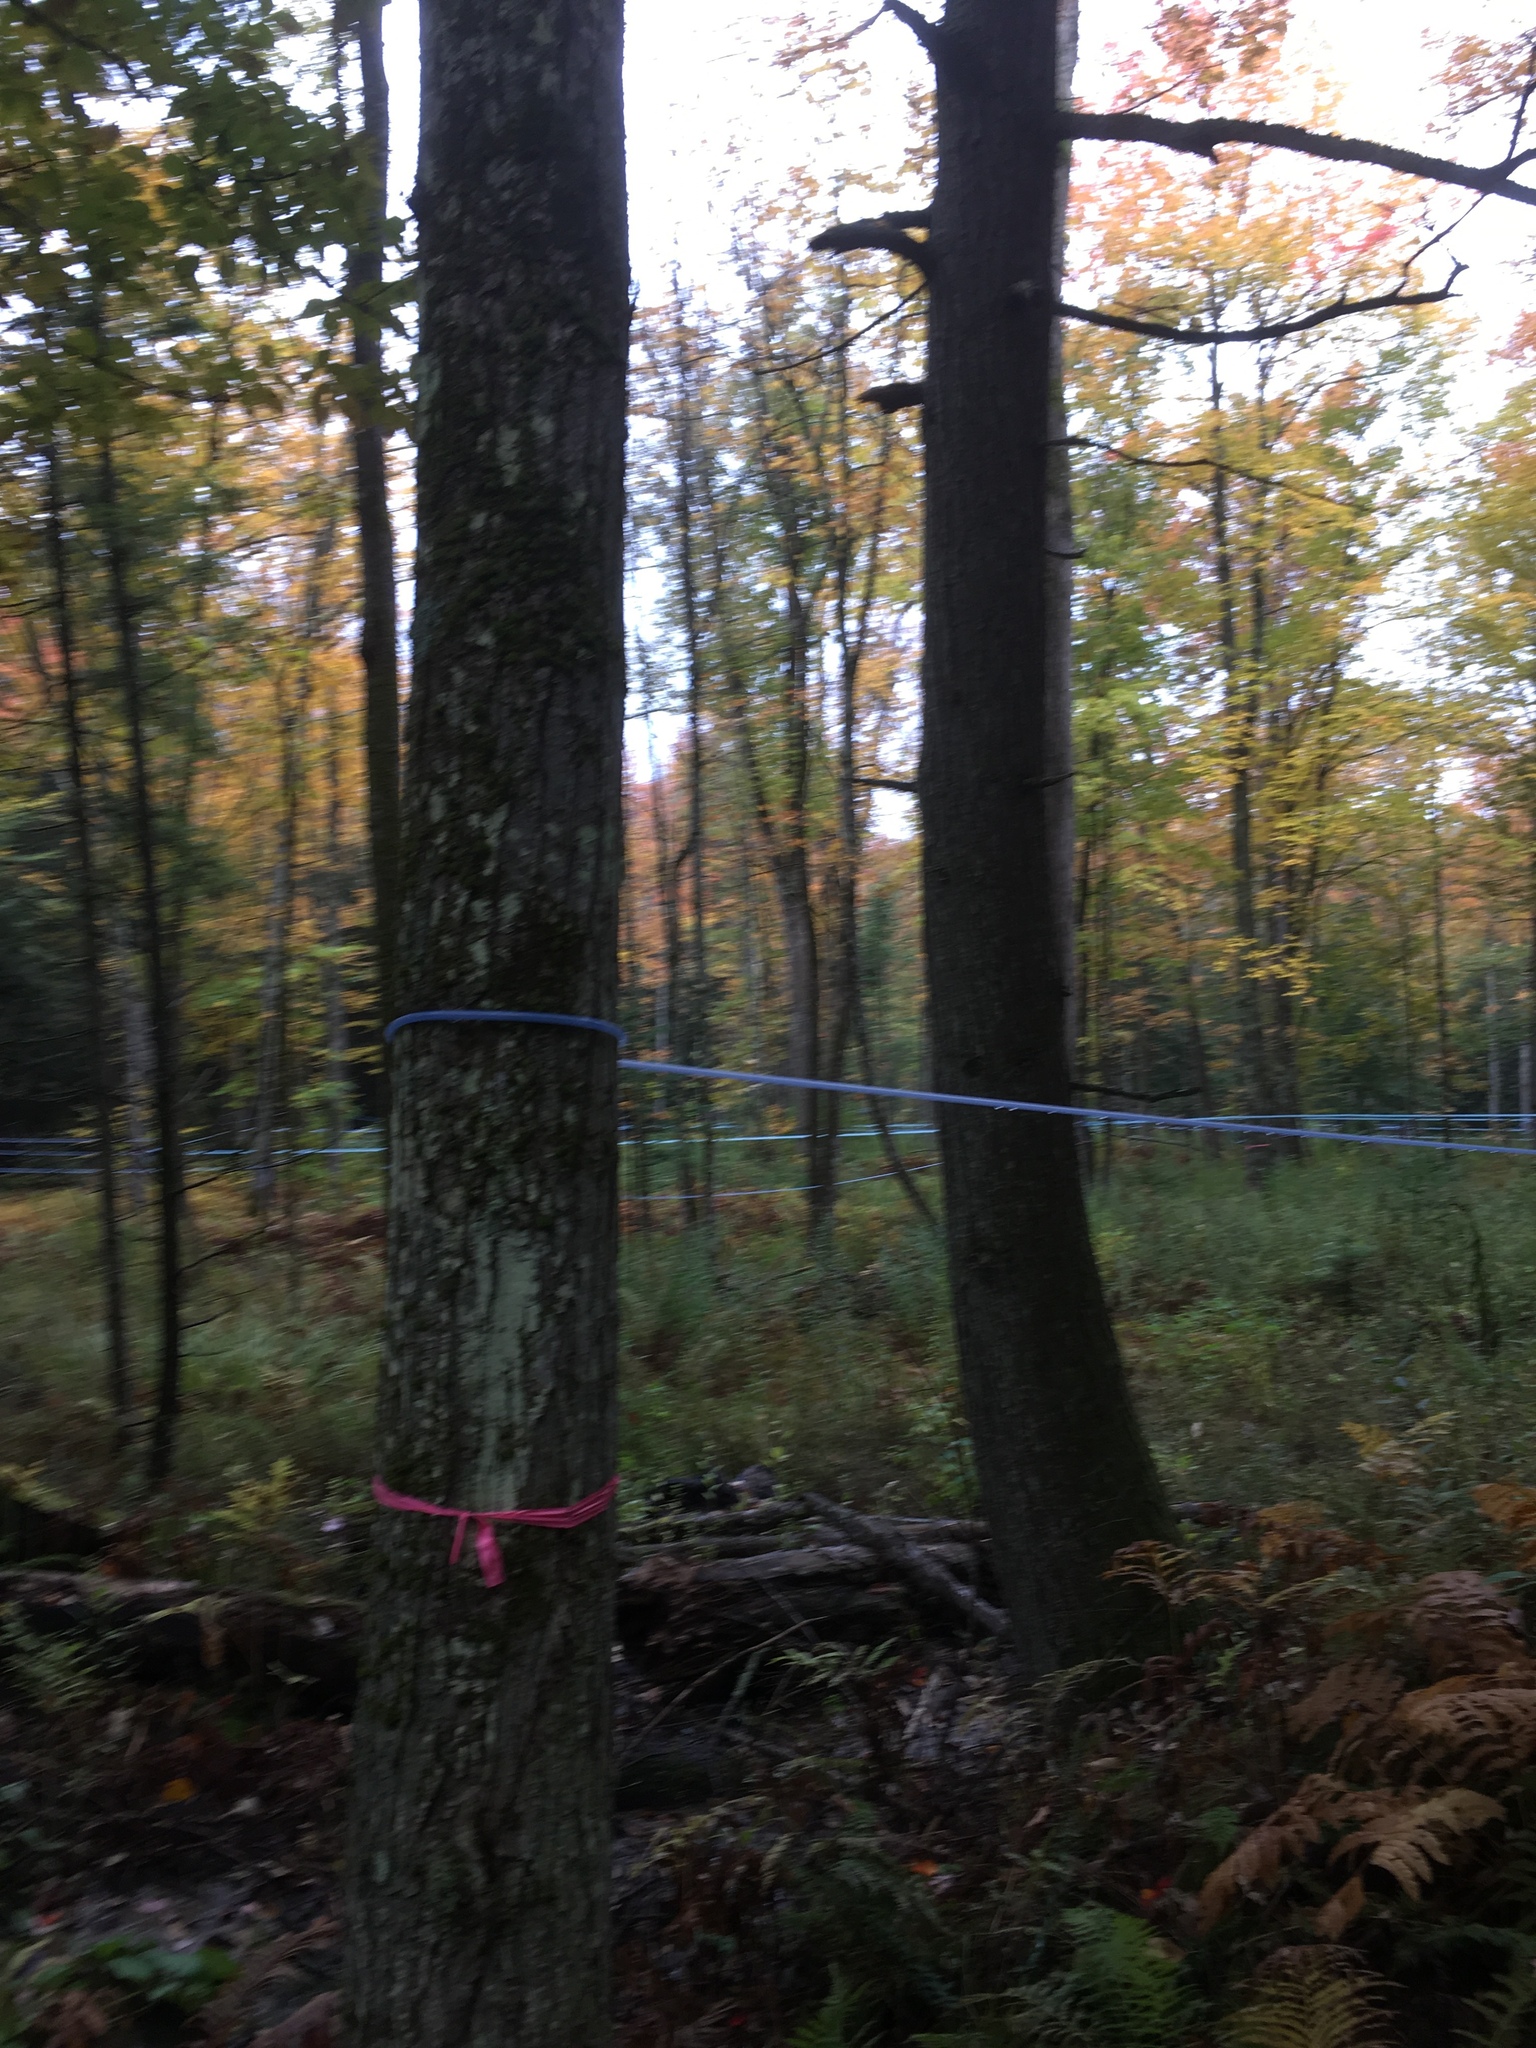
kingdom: Plantae
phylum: Tracheophyta
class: Magnoliopsida
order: Sapindales
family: Sapindaceae
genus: Acer
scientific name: Acer saccharum
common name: Sugar maple
